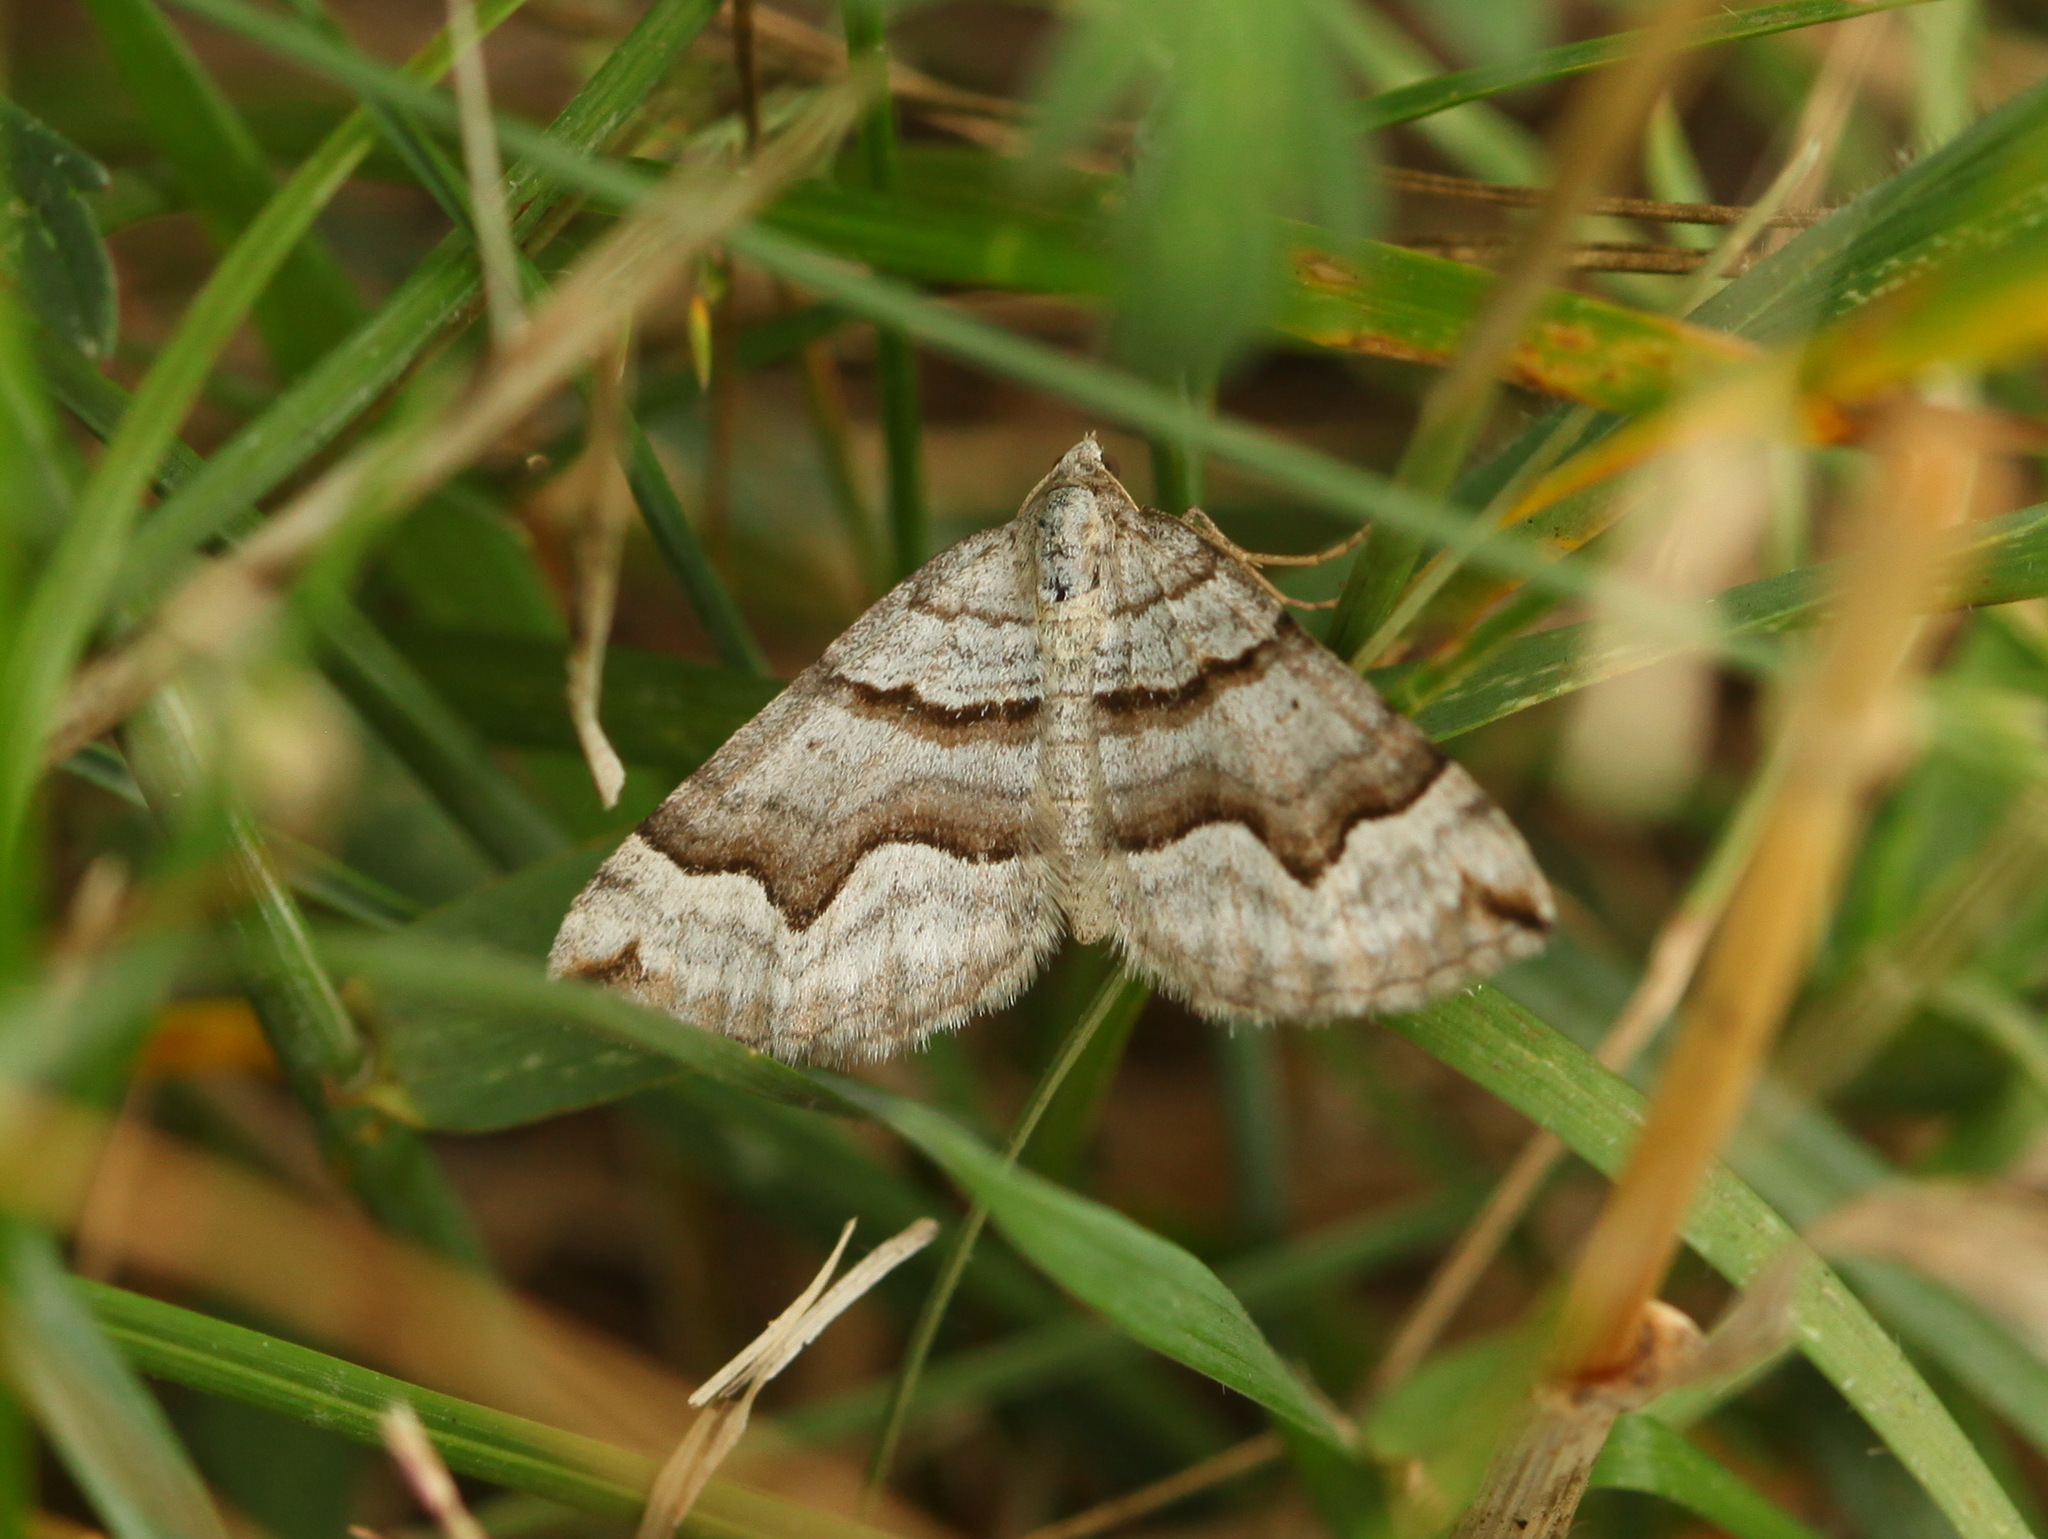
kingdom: Animalia
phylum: Arthropoda
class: Insecta
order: Lepidoptera
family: Geometridae
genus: Scotopteryx
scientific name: Scotopteryx transbaicalica
